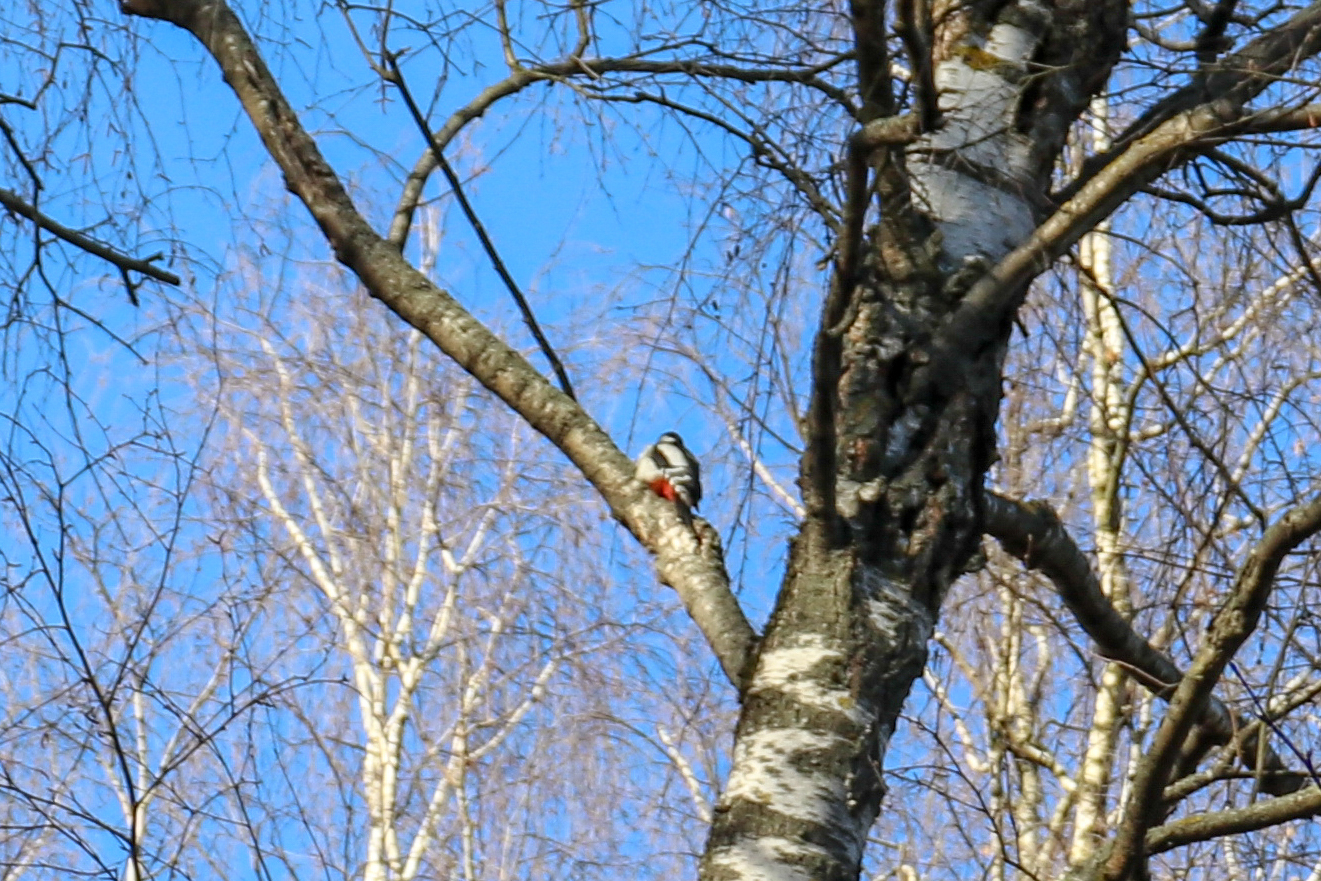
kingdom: Animalia
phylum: Chordata
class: Aves
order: Piciformes
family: Picidae
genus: Dendrocopos
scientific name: Dendrocopos major
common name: Great spotted woodpecker
